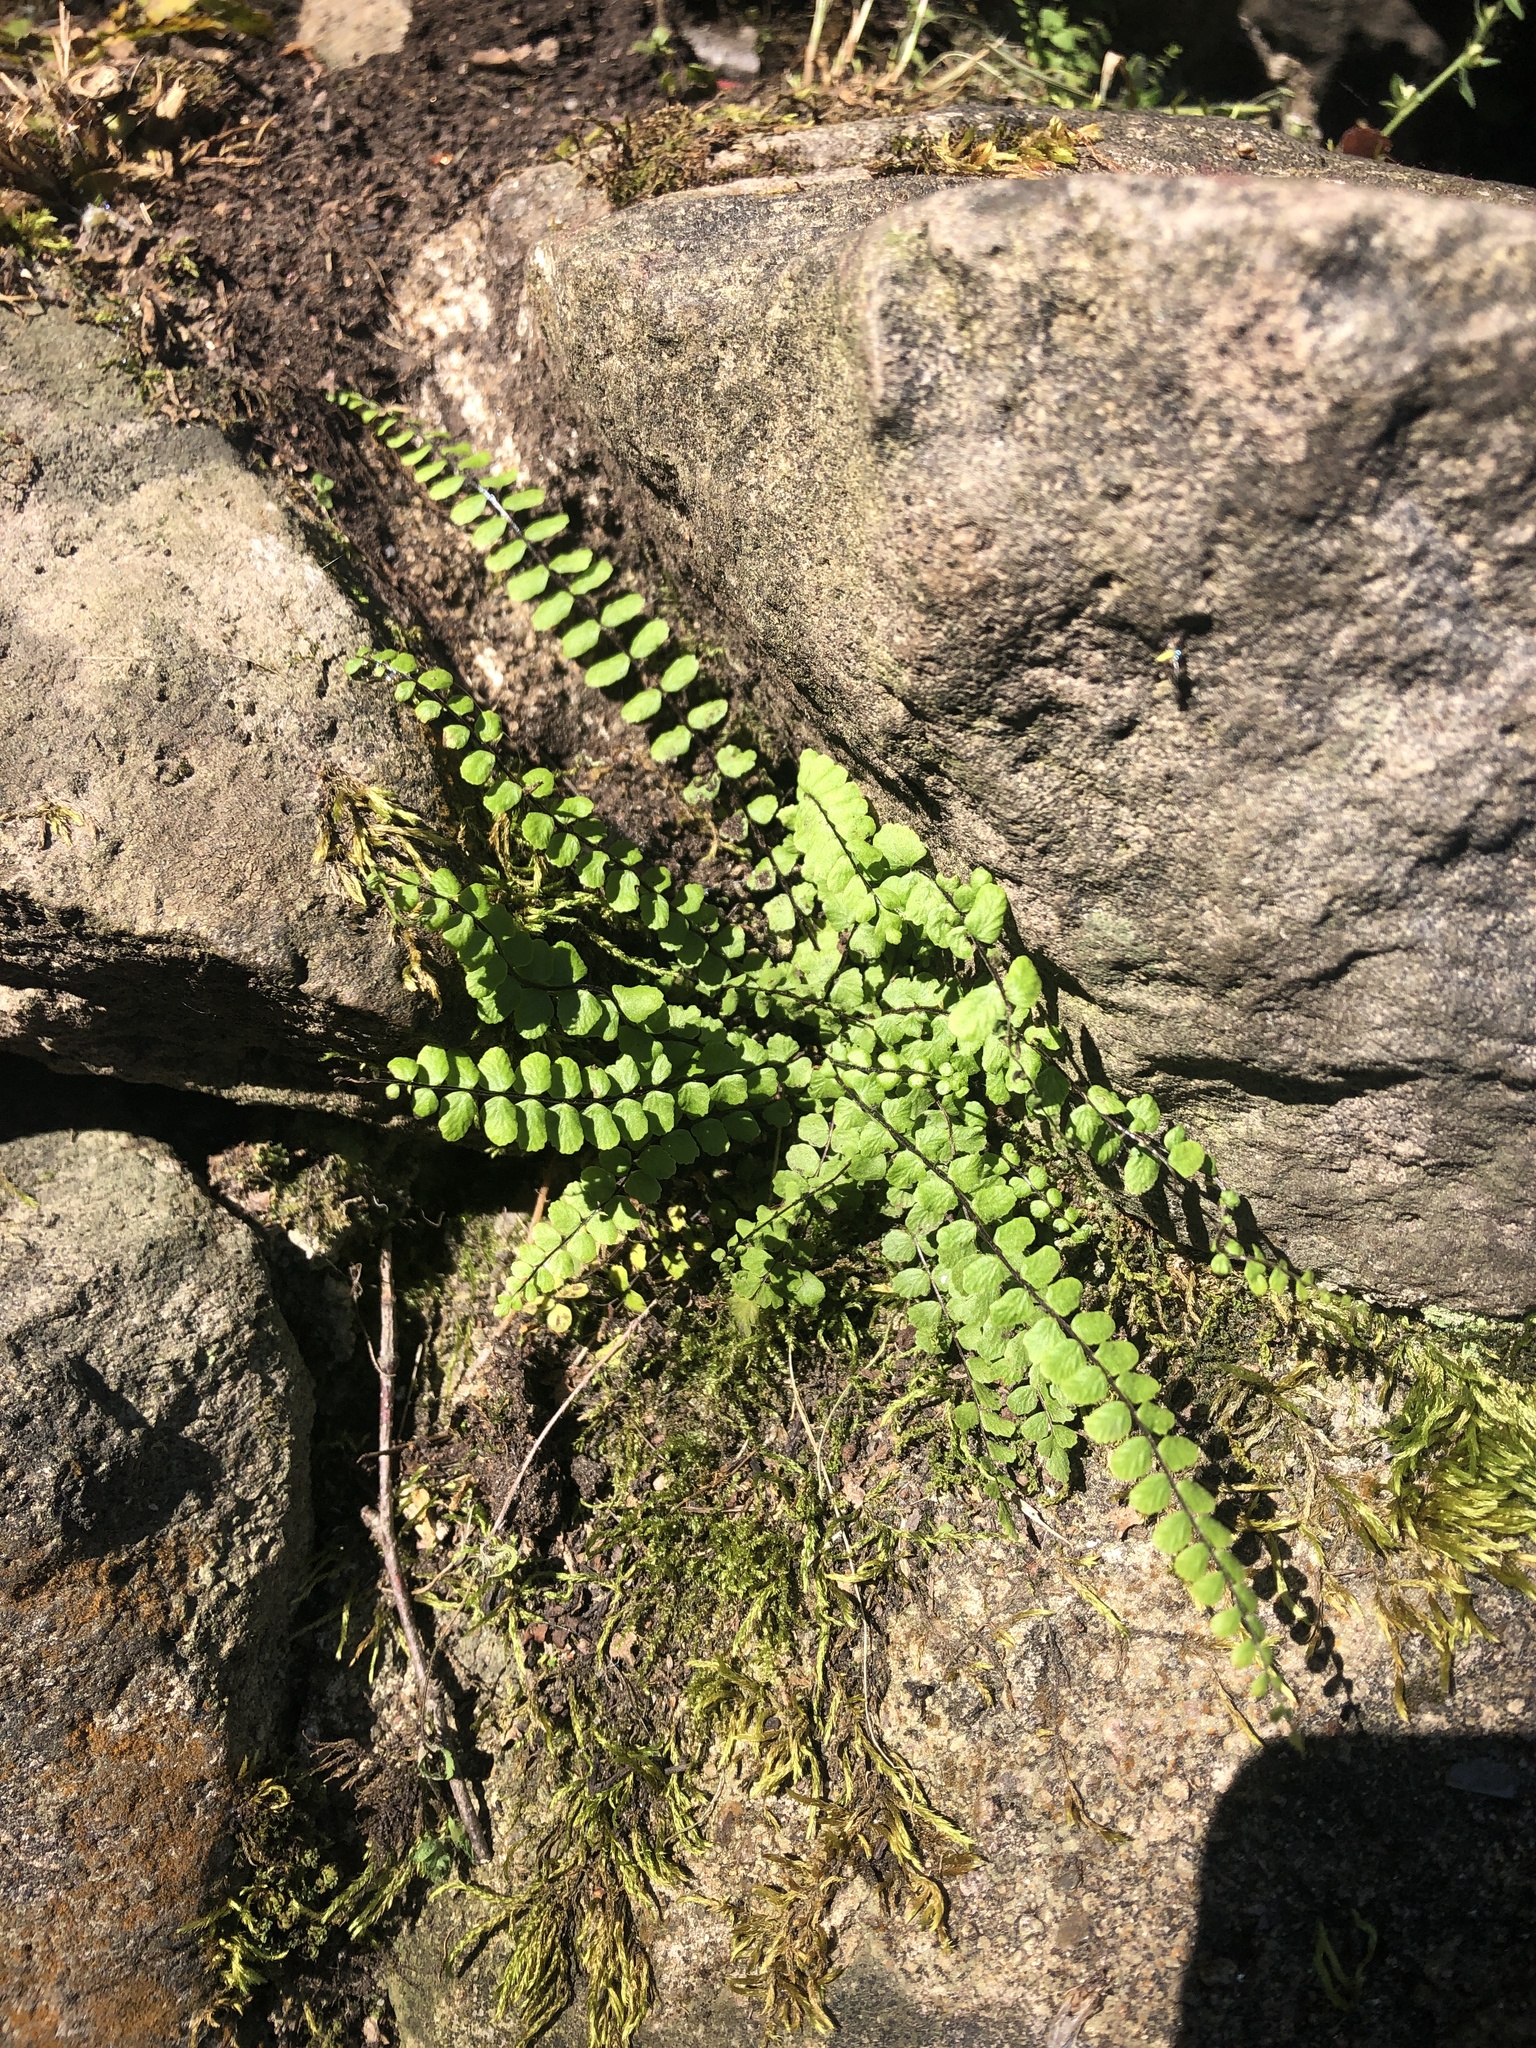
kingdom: Plantae
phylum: Tracheophyta
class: Polypodiopsida
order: Polypodiales
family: Aspleniaceae
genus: Asplenium
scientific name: Asplenium trichomanes
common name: Maidenhair spleenwort
